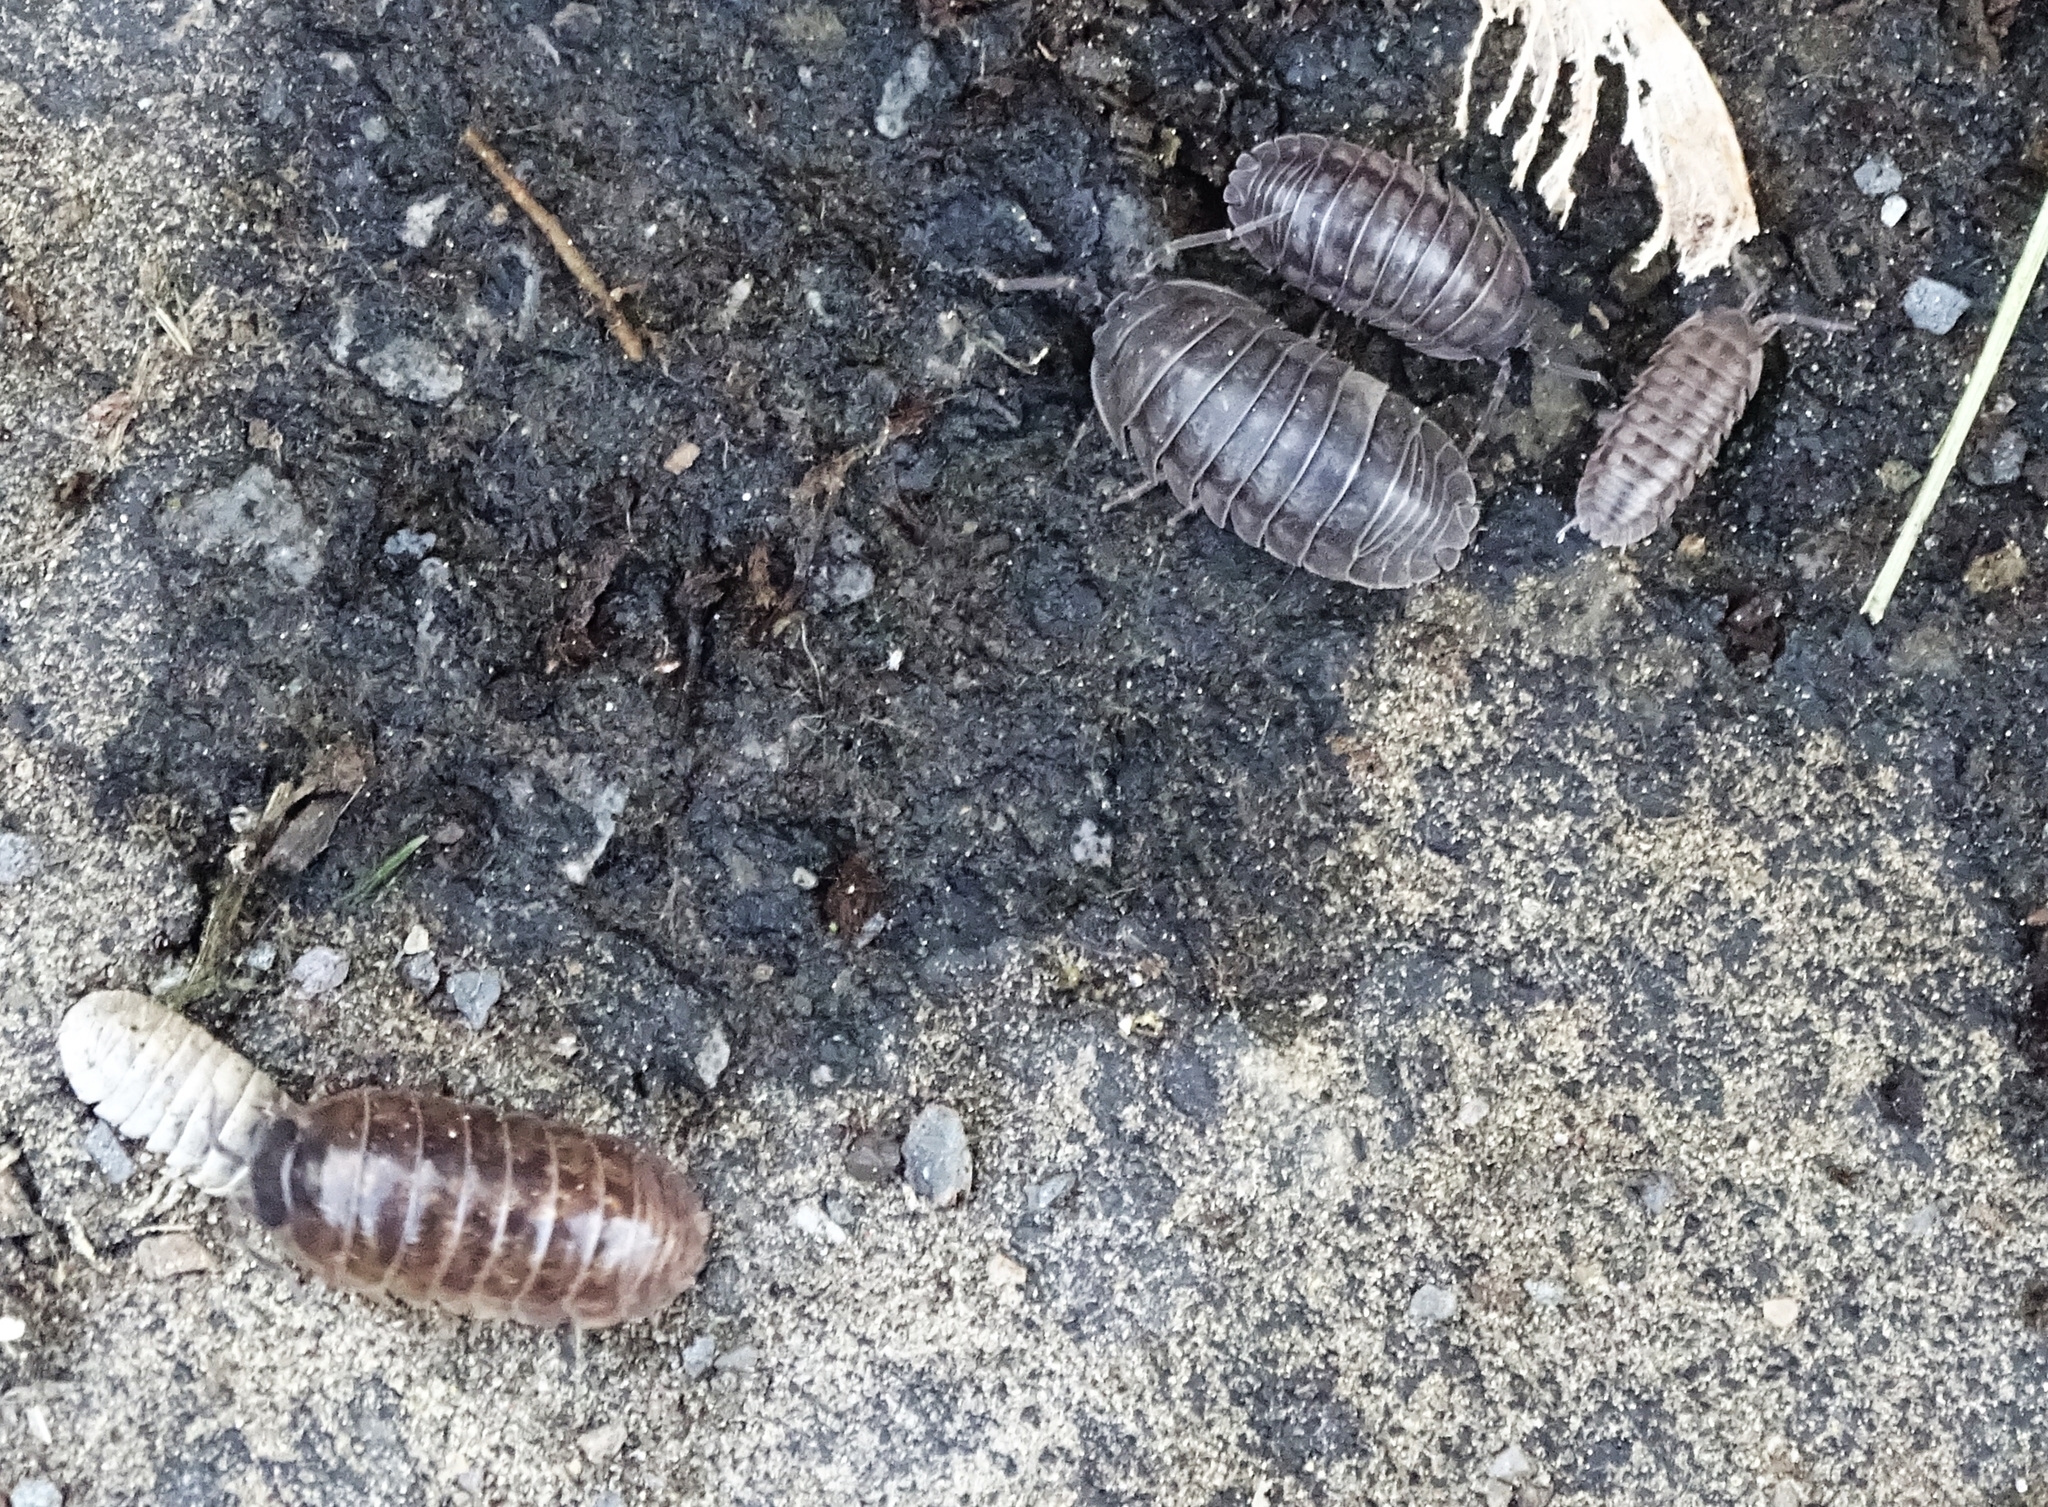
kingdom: Animalia
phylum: Arthropoda
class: Malacostraca
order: Isopoda
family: Armadillidiidae
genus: Armadillidium
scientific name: Armadillidium nasatum
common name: Isopod
